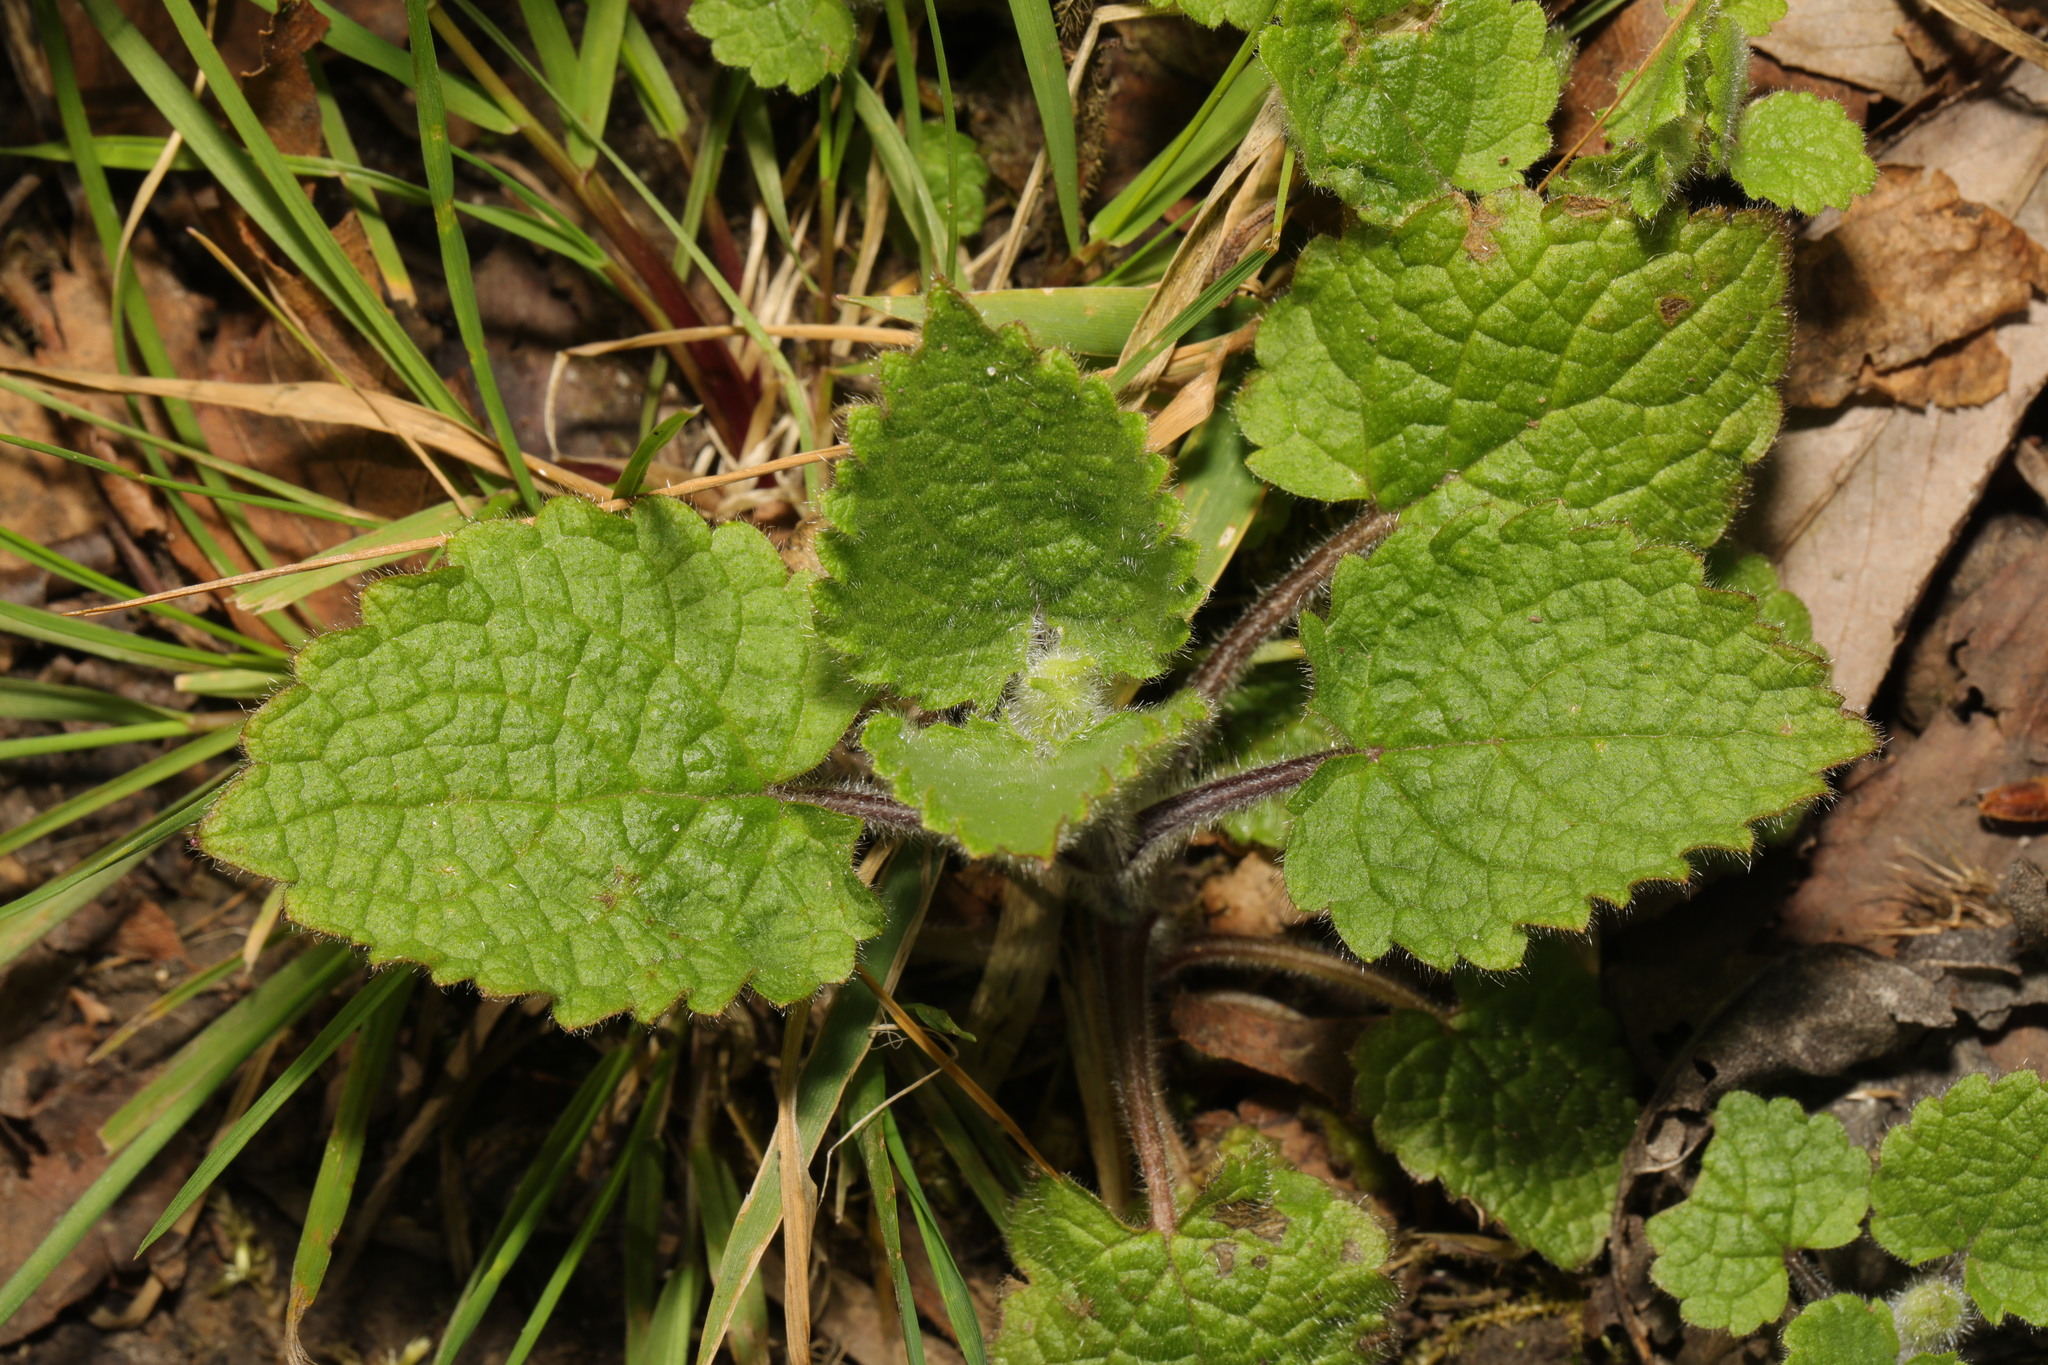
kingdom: Plantae
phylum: Tracheophyta
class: Magnoliopsida
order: Lamiales
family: Lamiaceae
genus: Stachys
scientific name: Stachys sylvatica
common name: Hedge woundwort
